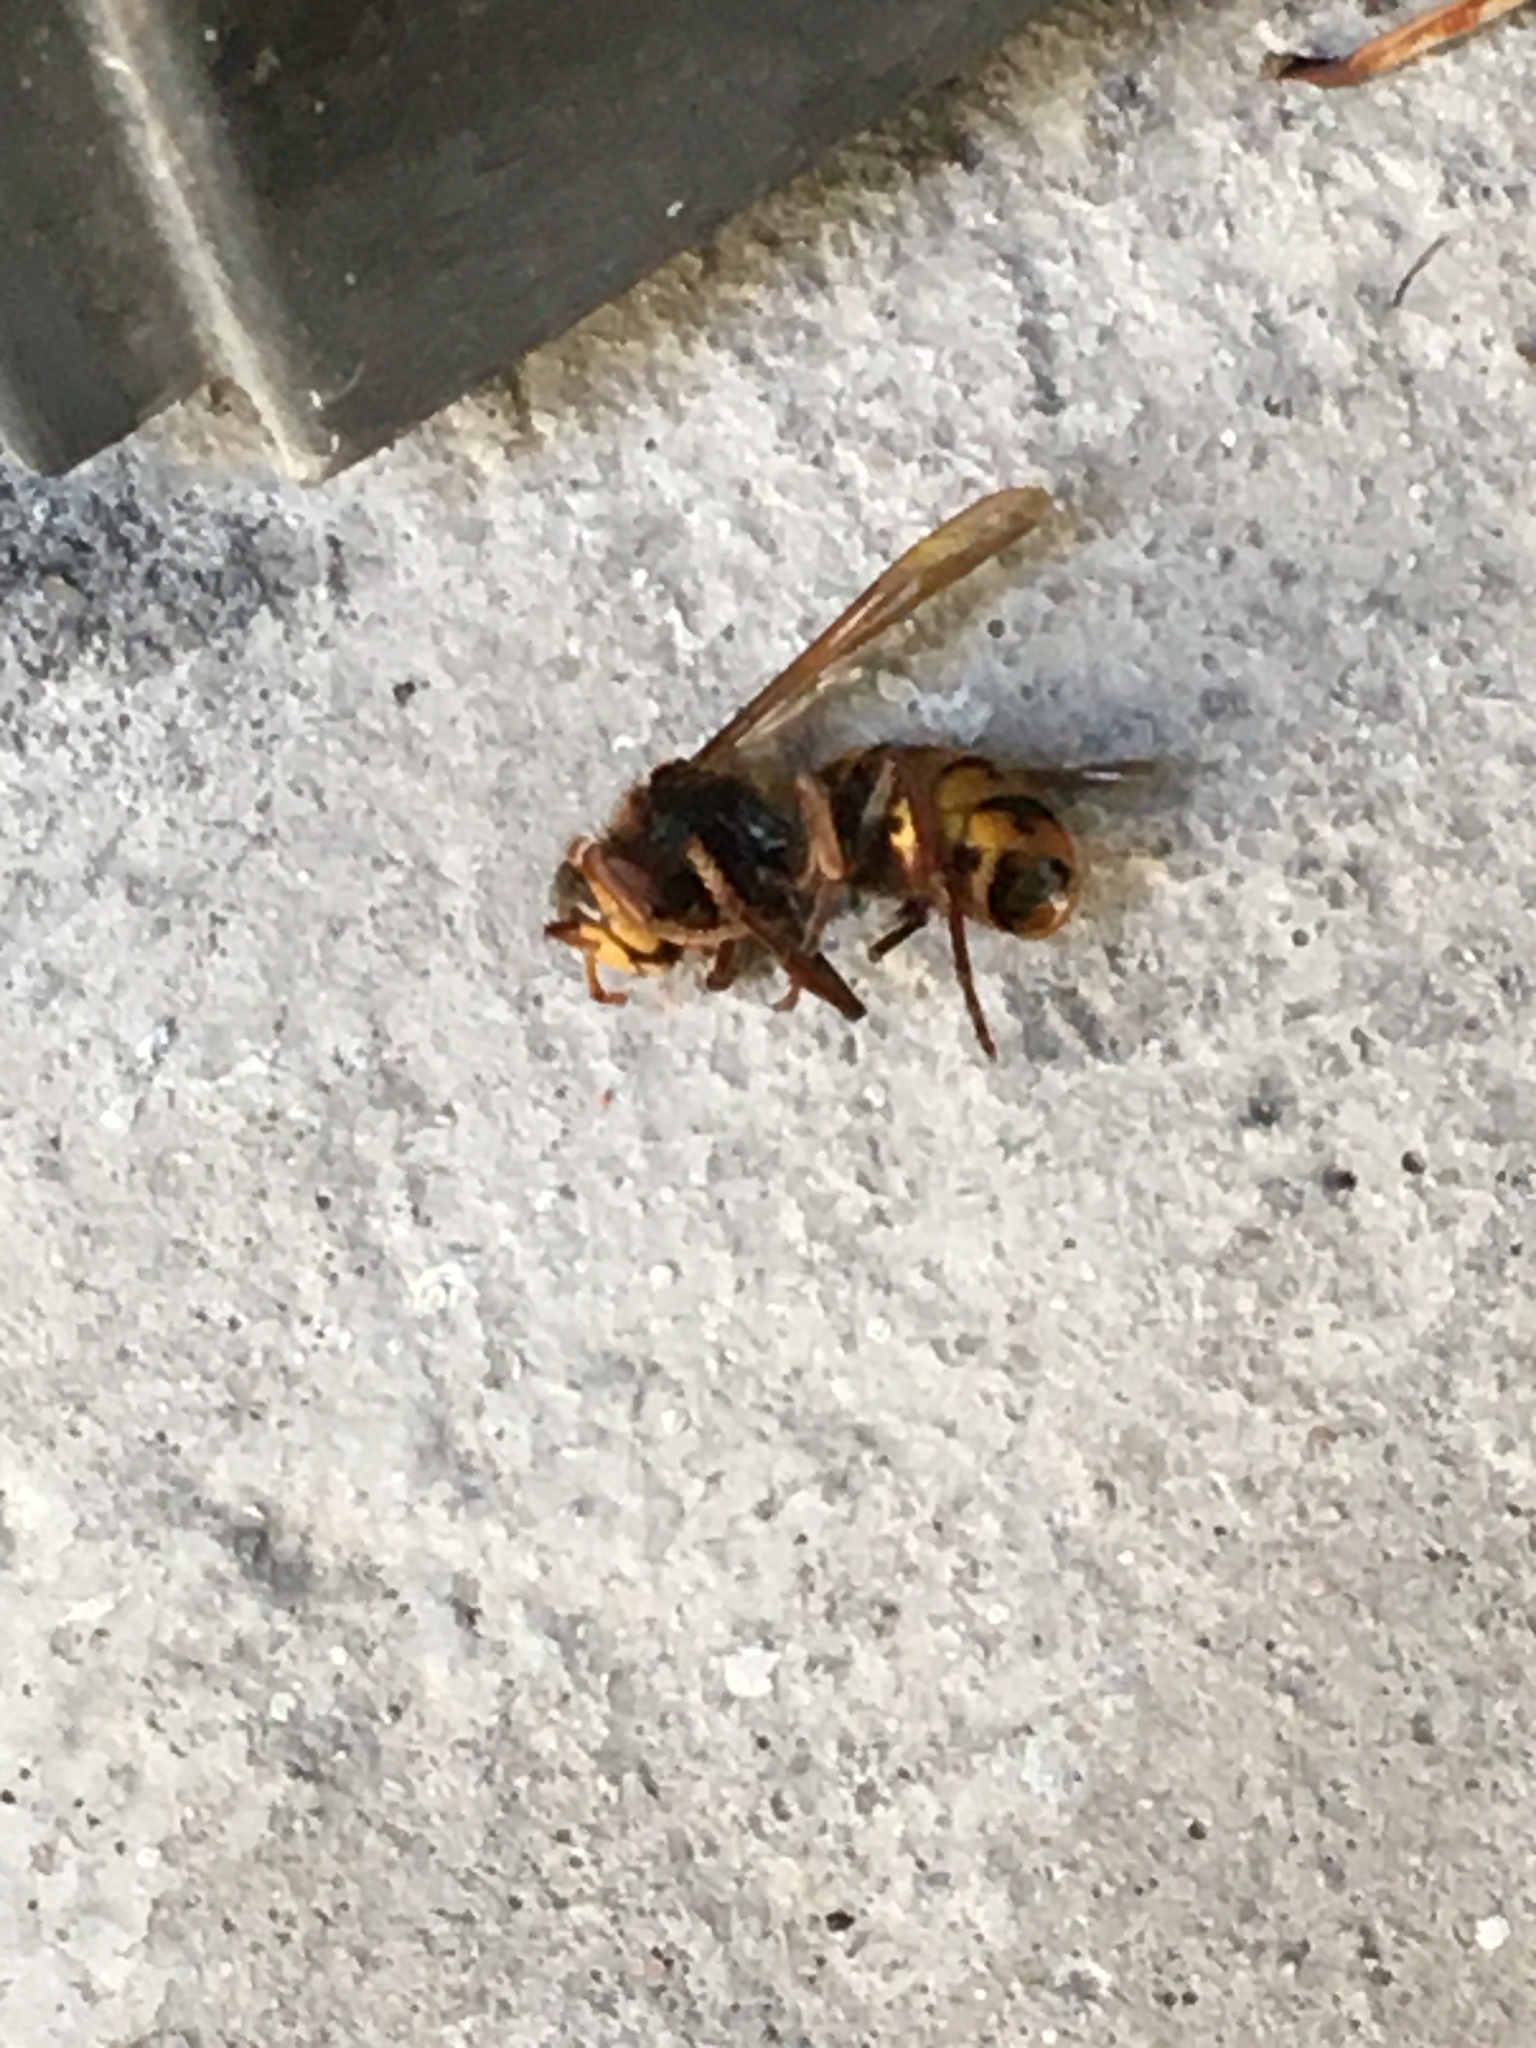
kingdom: Animalia
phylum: Arthropoda
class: Insecta
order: Hymenoptera
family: Vespidae
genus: Vespa
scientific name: Vespa crabro
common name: Hornet
